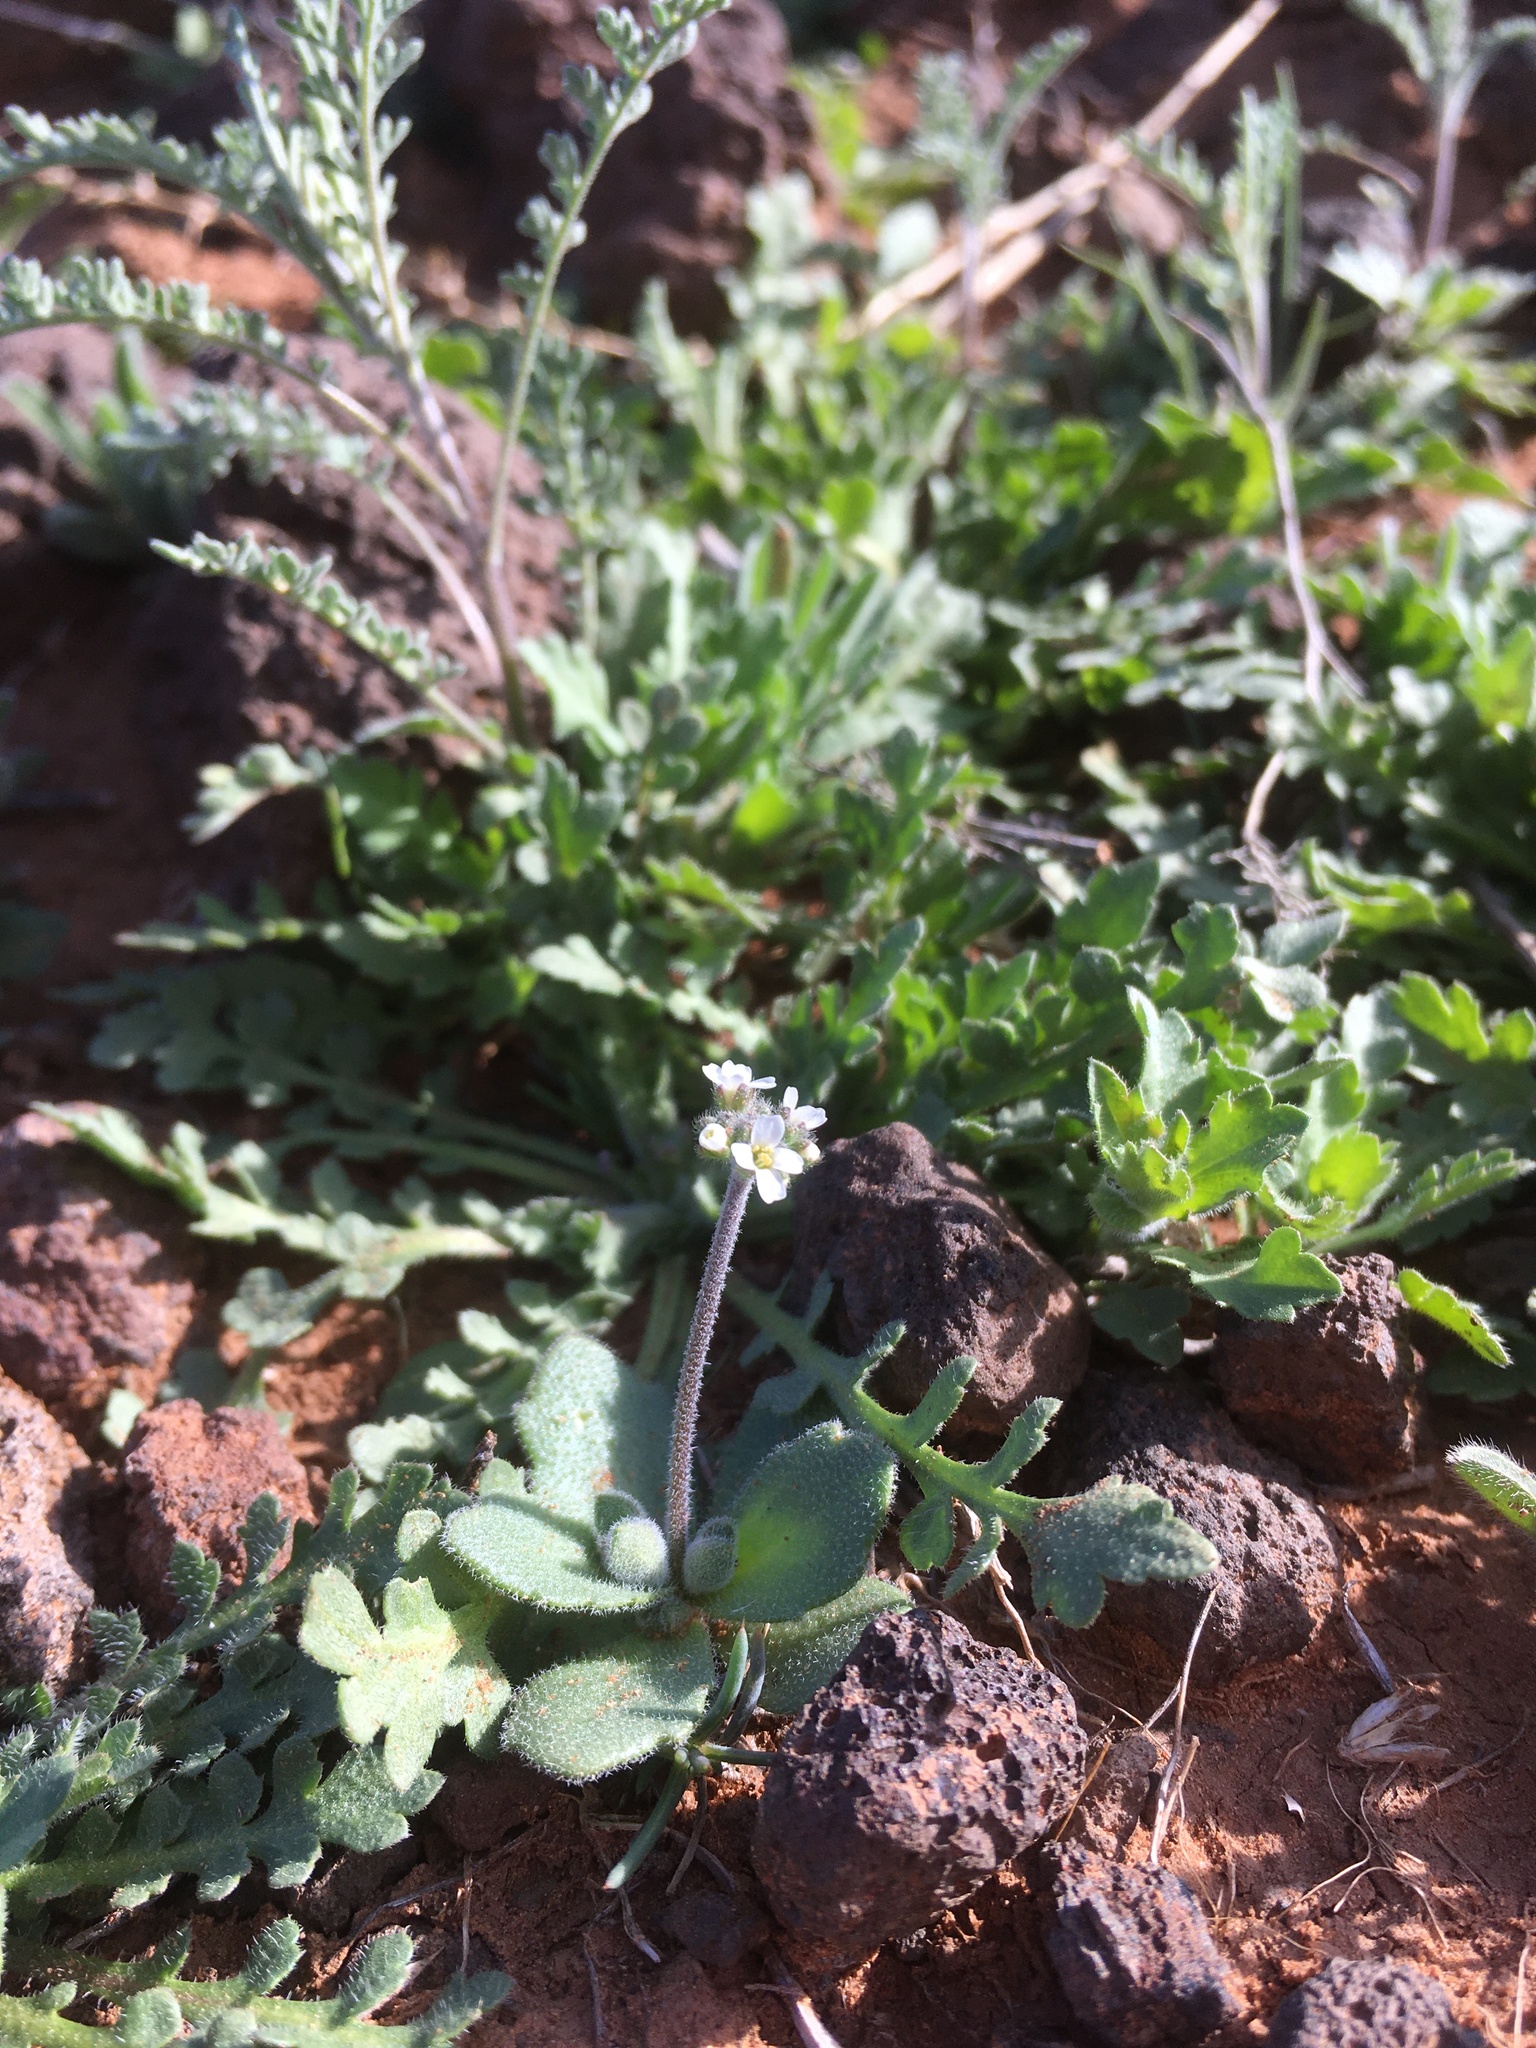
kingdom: Plantae
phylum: Tracheophyta
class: Magnoliopsida
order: Brassicales
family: Brassicaceae
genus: Tomostima
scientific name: Tomostima cuneifolia
